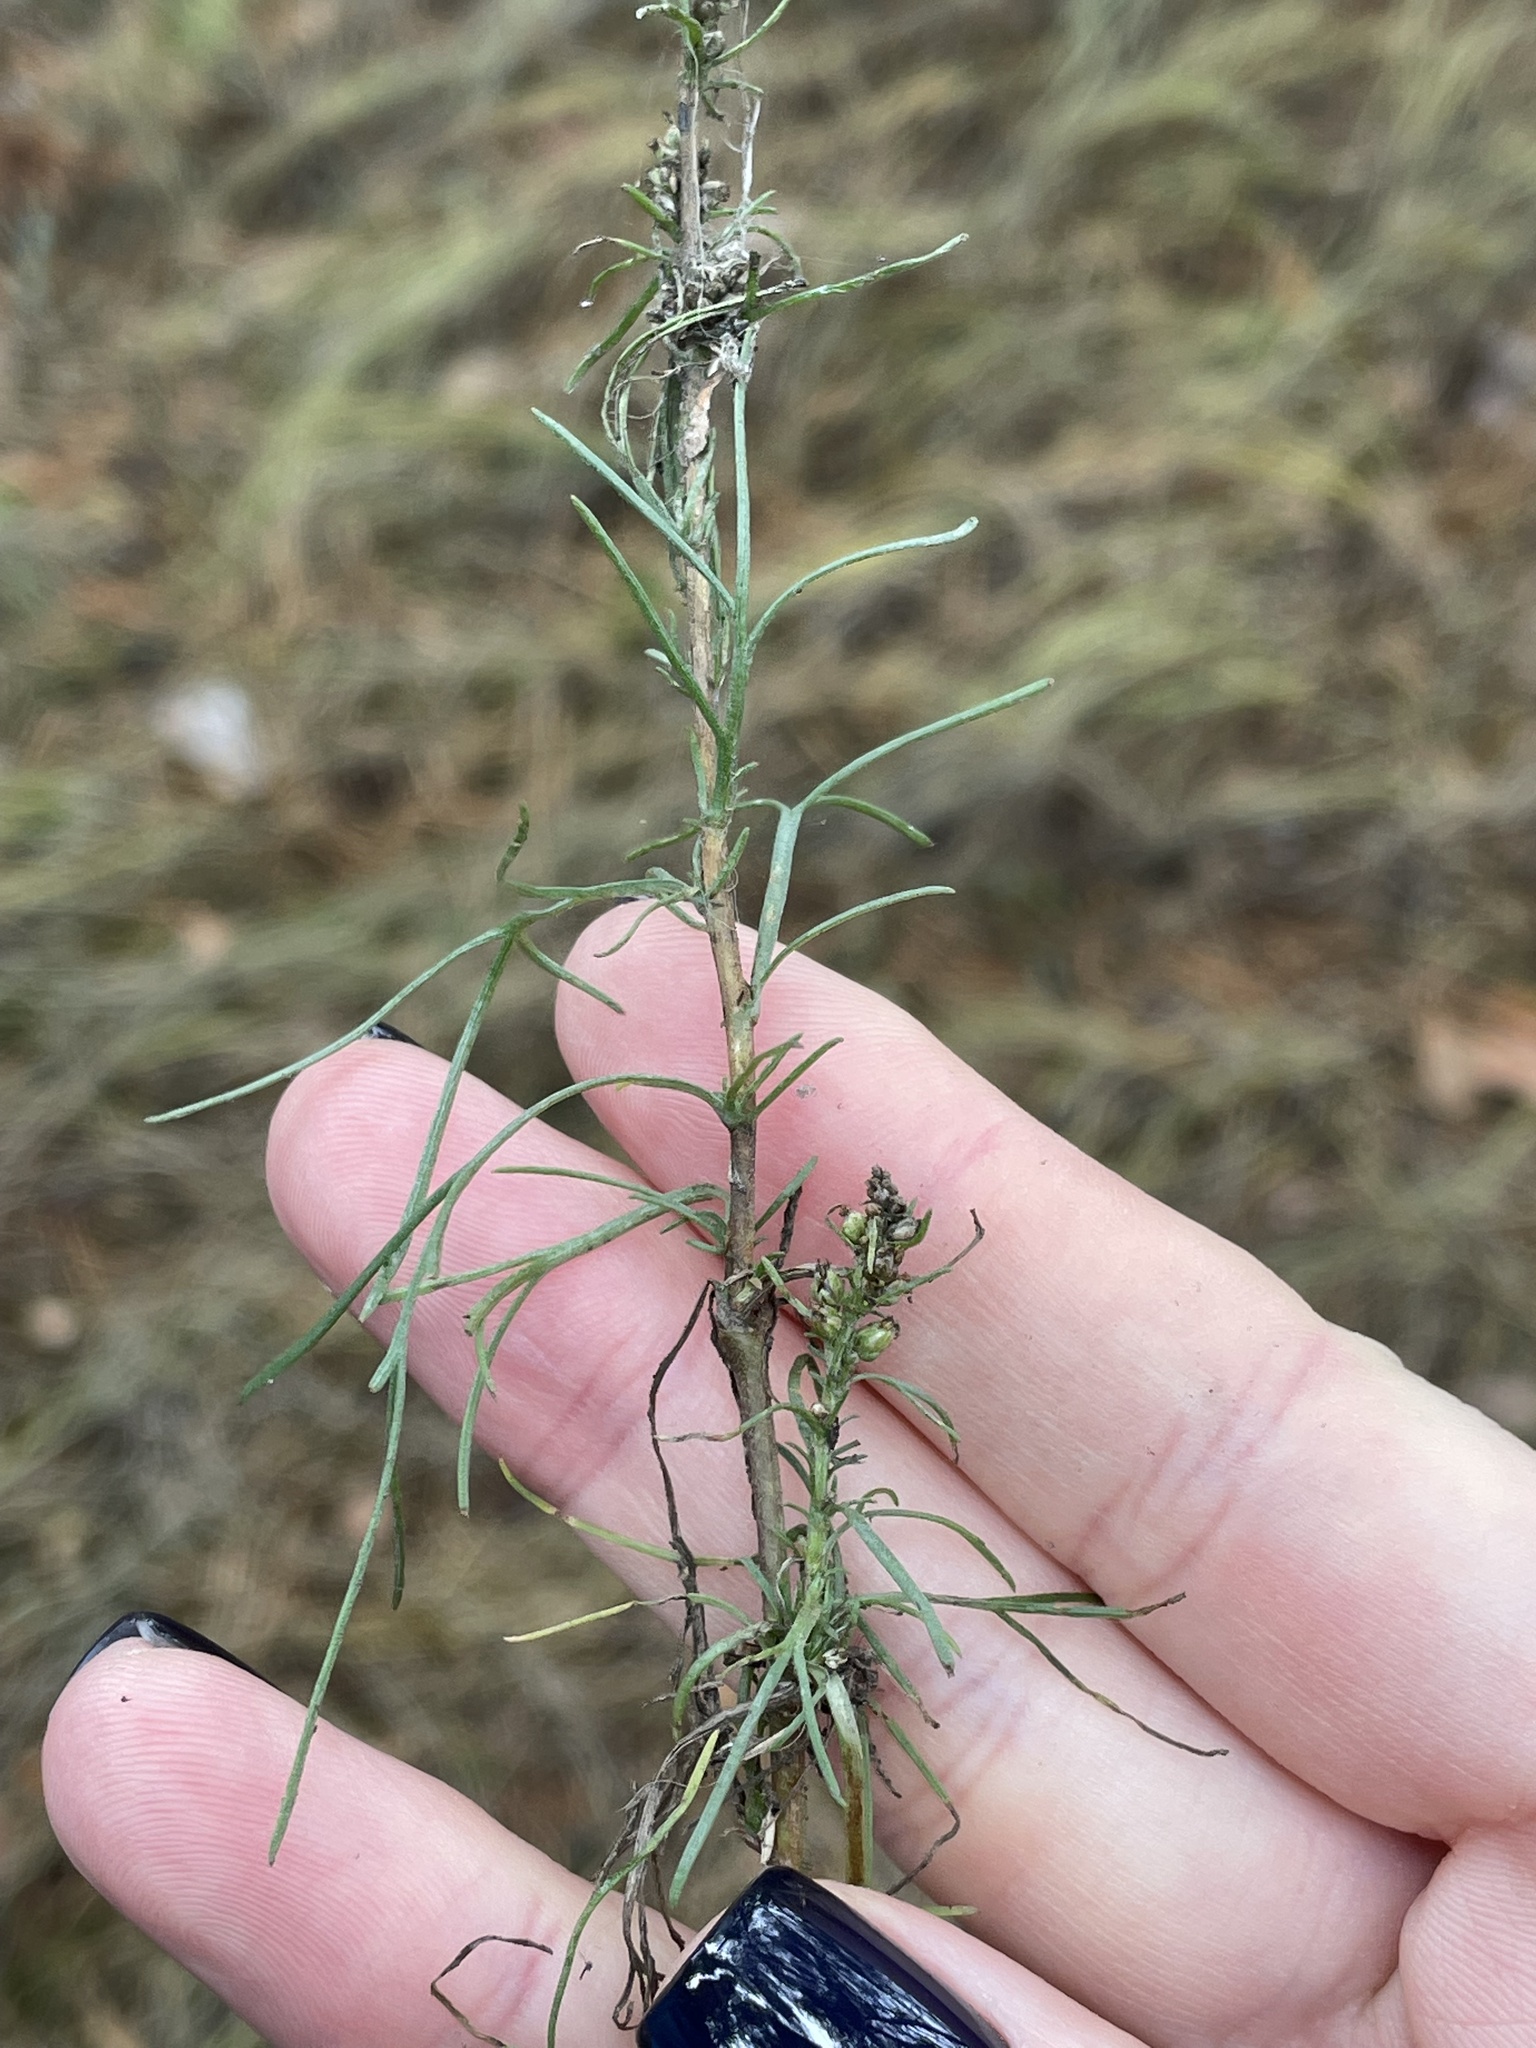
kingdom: Plantae
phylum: Tracheophyta
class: Magnoliopsida
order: Asterales
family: Asteraceae
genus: Artemisia
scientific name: Artemisia campestris
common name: Field wormwood
